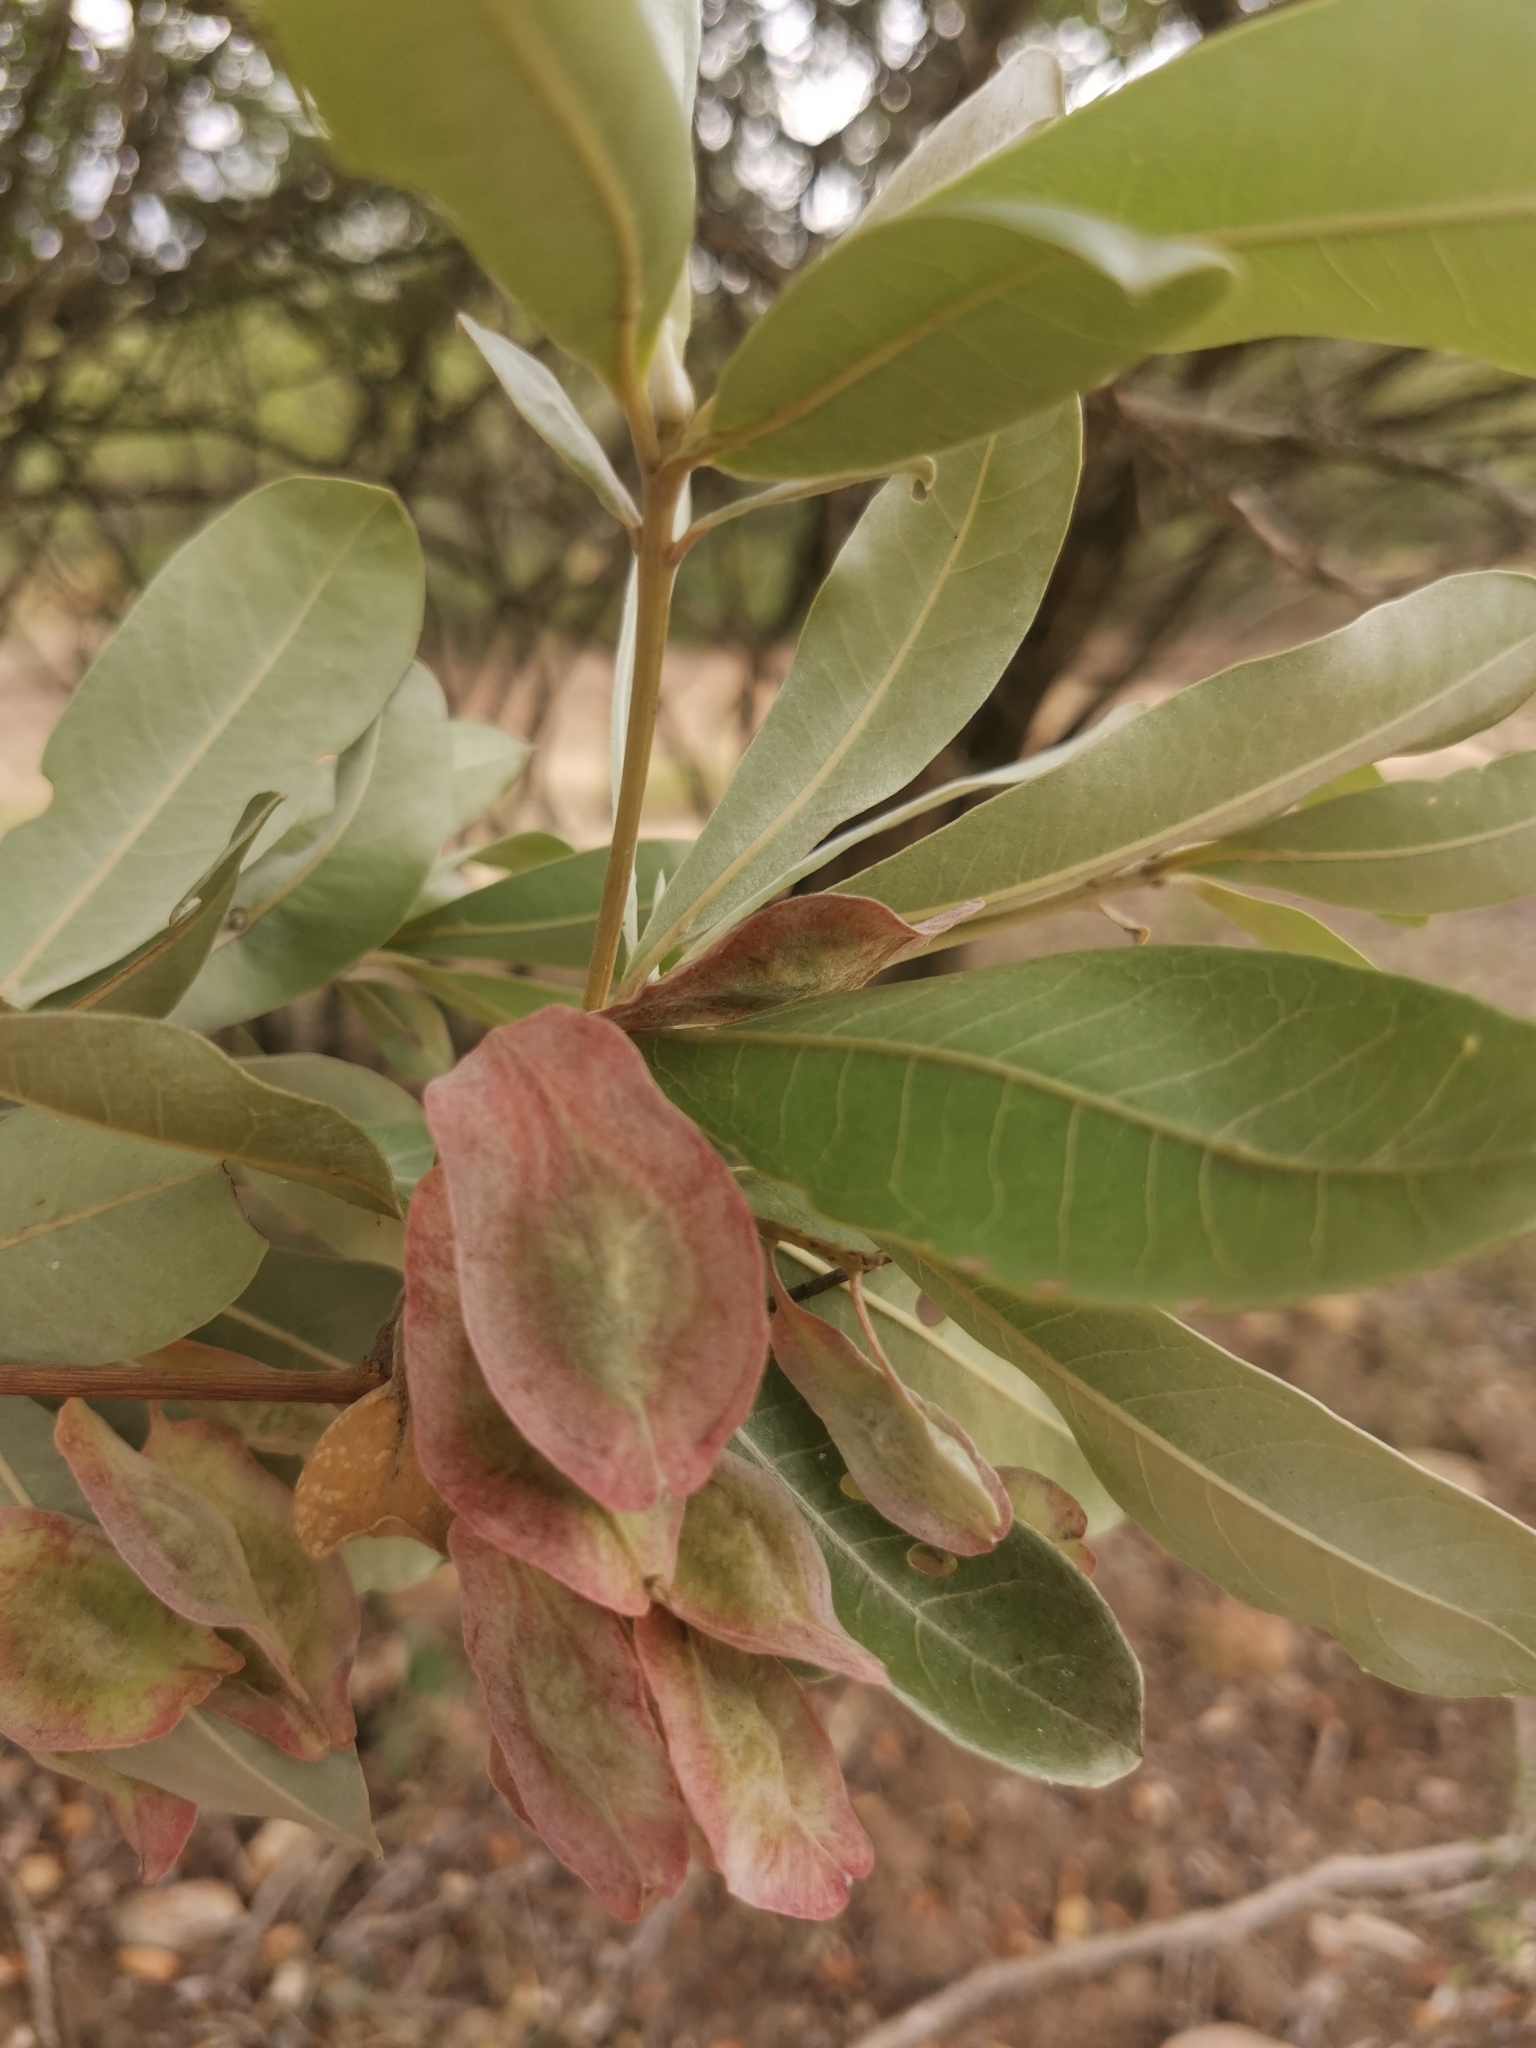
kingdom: Plantae
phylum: Tracheophyta
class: Magnoliopsida
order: Myrtales
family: Combretaceae
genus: Terminalia
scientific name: Terminalia sericea
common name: Clusterleaf
